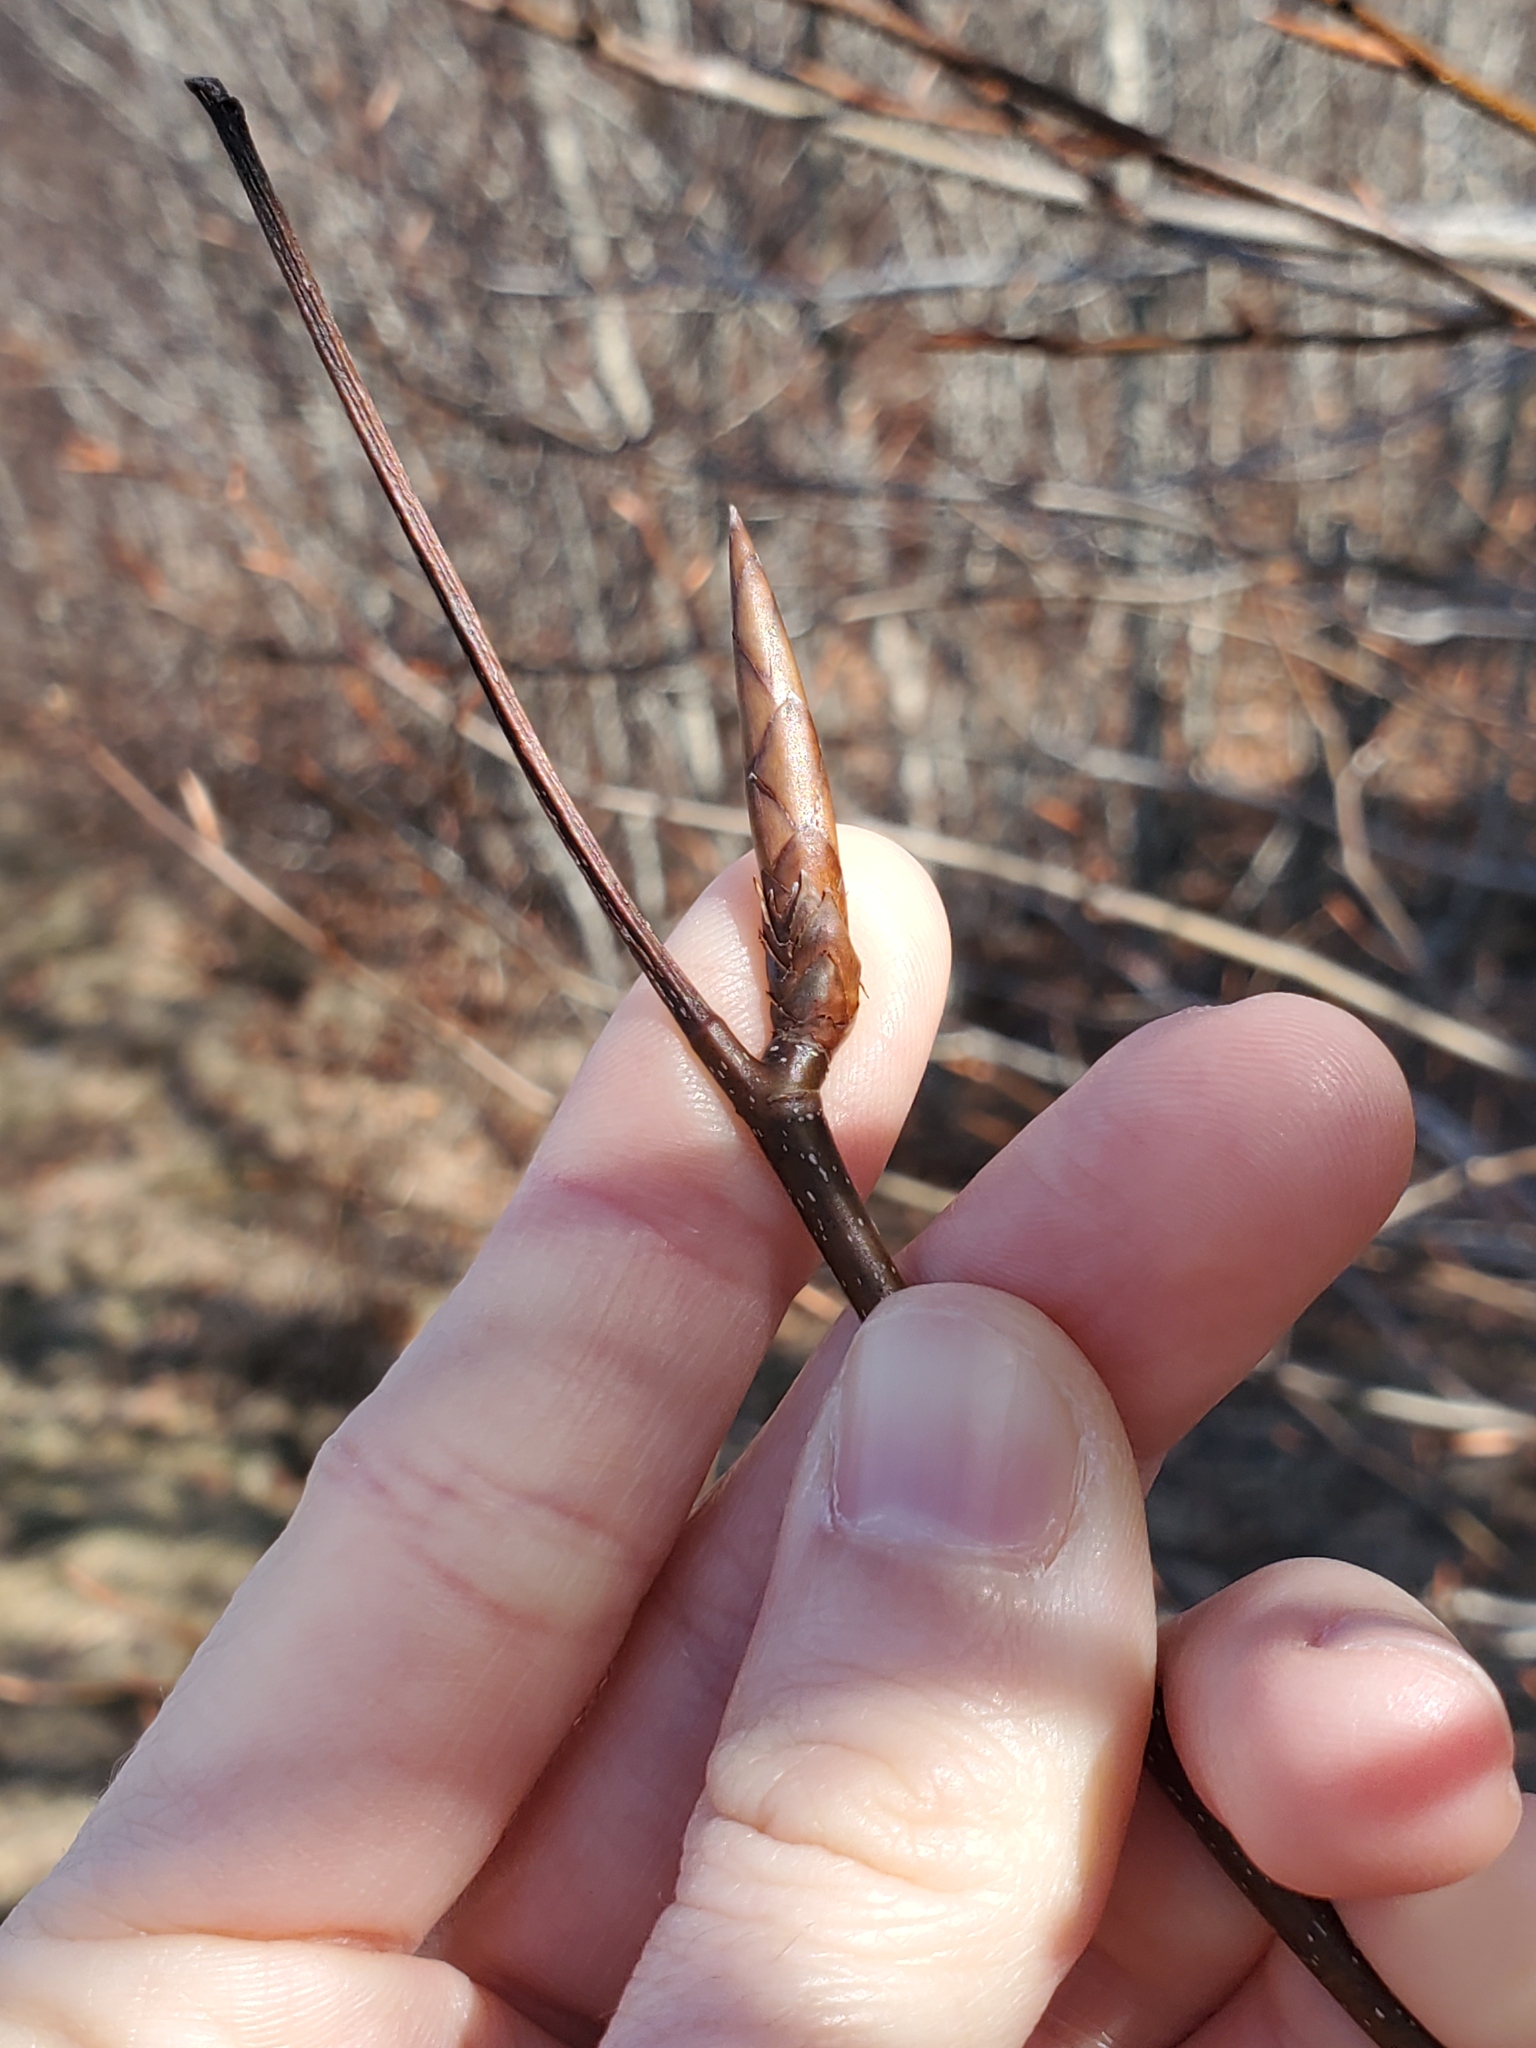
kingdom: Plantae
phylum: Tracheophyta
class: Magnoliopsida
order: Fagales
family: Fagaceae
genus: Fagus
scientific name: Fagus grandifolia
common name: American beech
